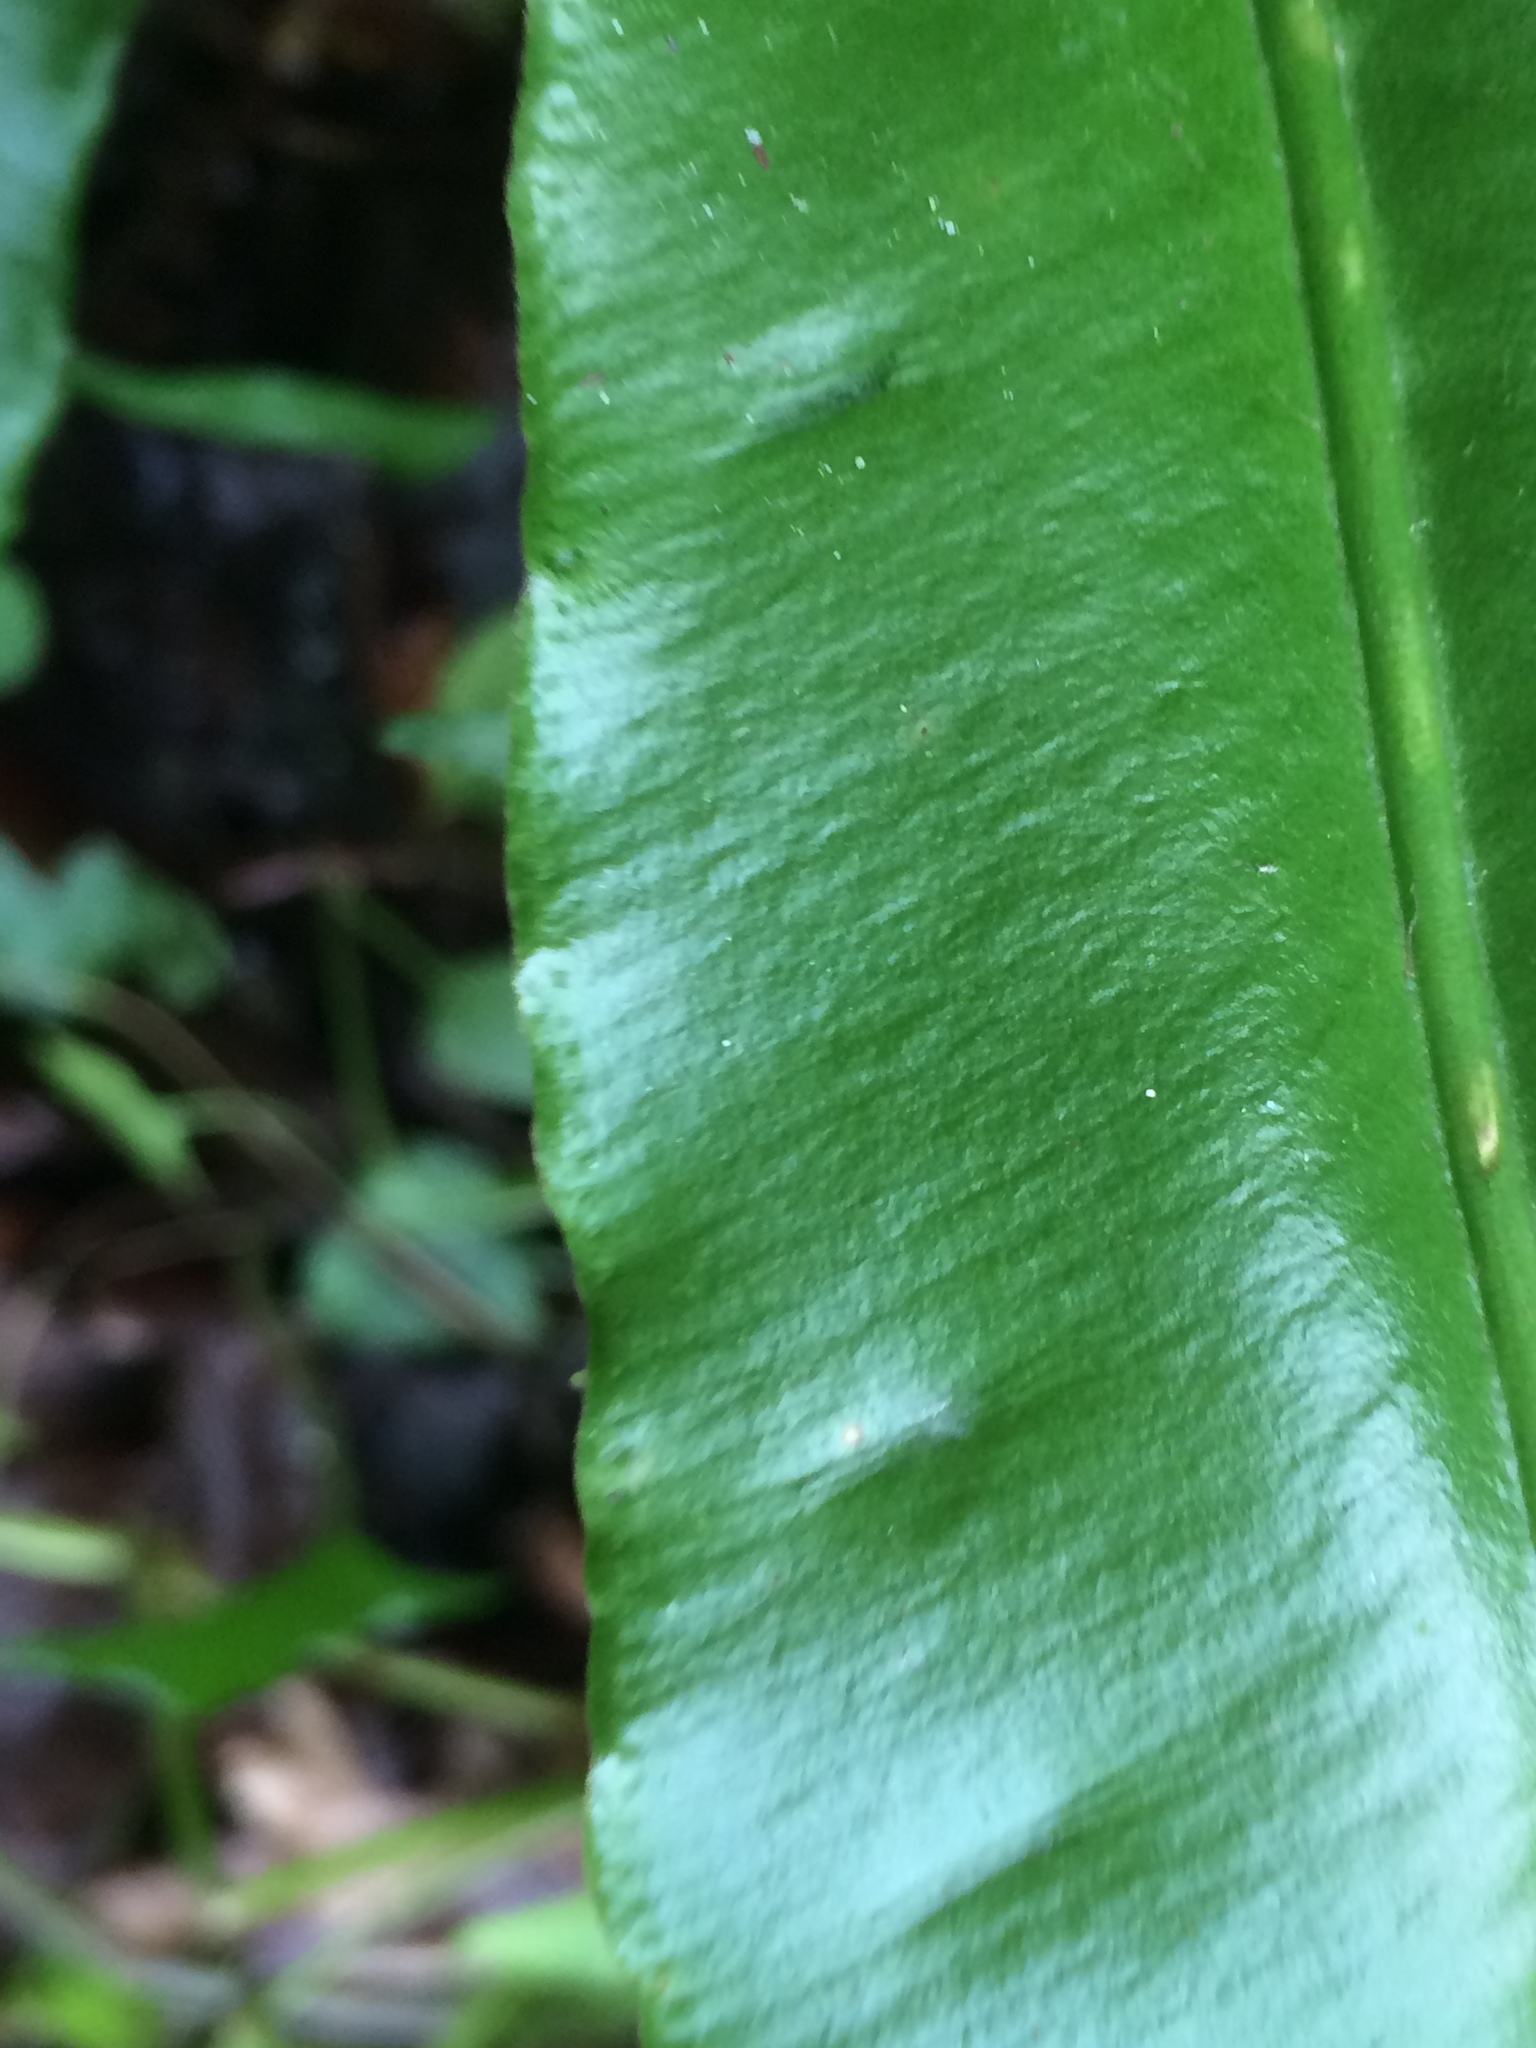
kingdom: Plantae
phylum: Tracheophyta
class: Polypodiopsida
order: Polypodiales
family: Aspleniaceae
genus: Asplenium
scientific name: Asplenium scolopendrium
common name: Hart's-tongue fern
